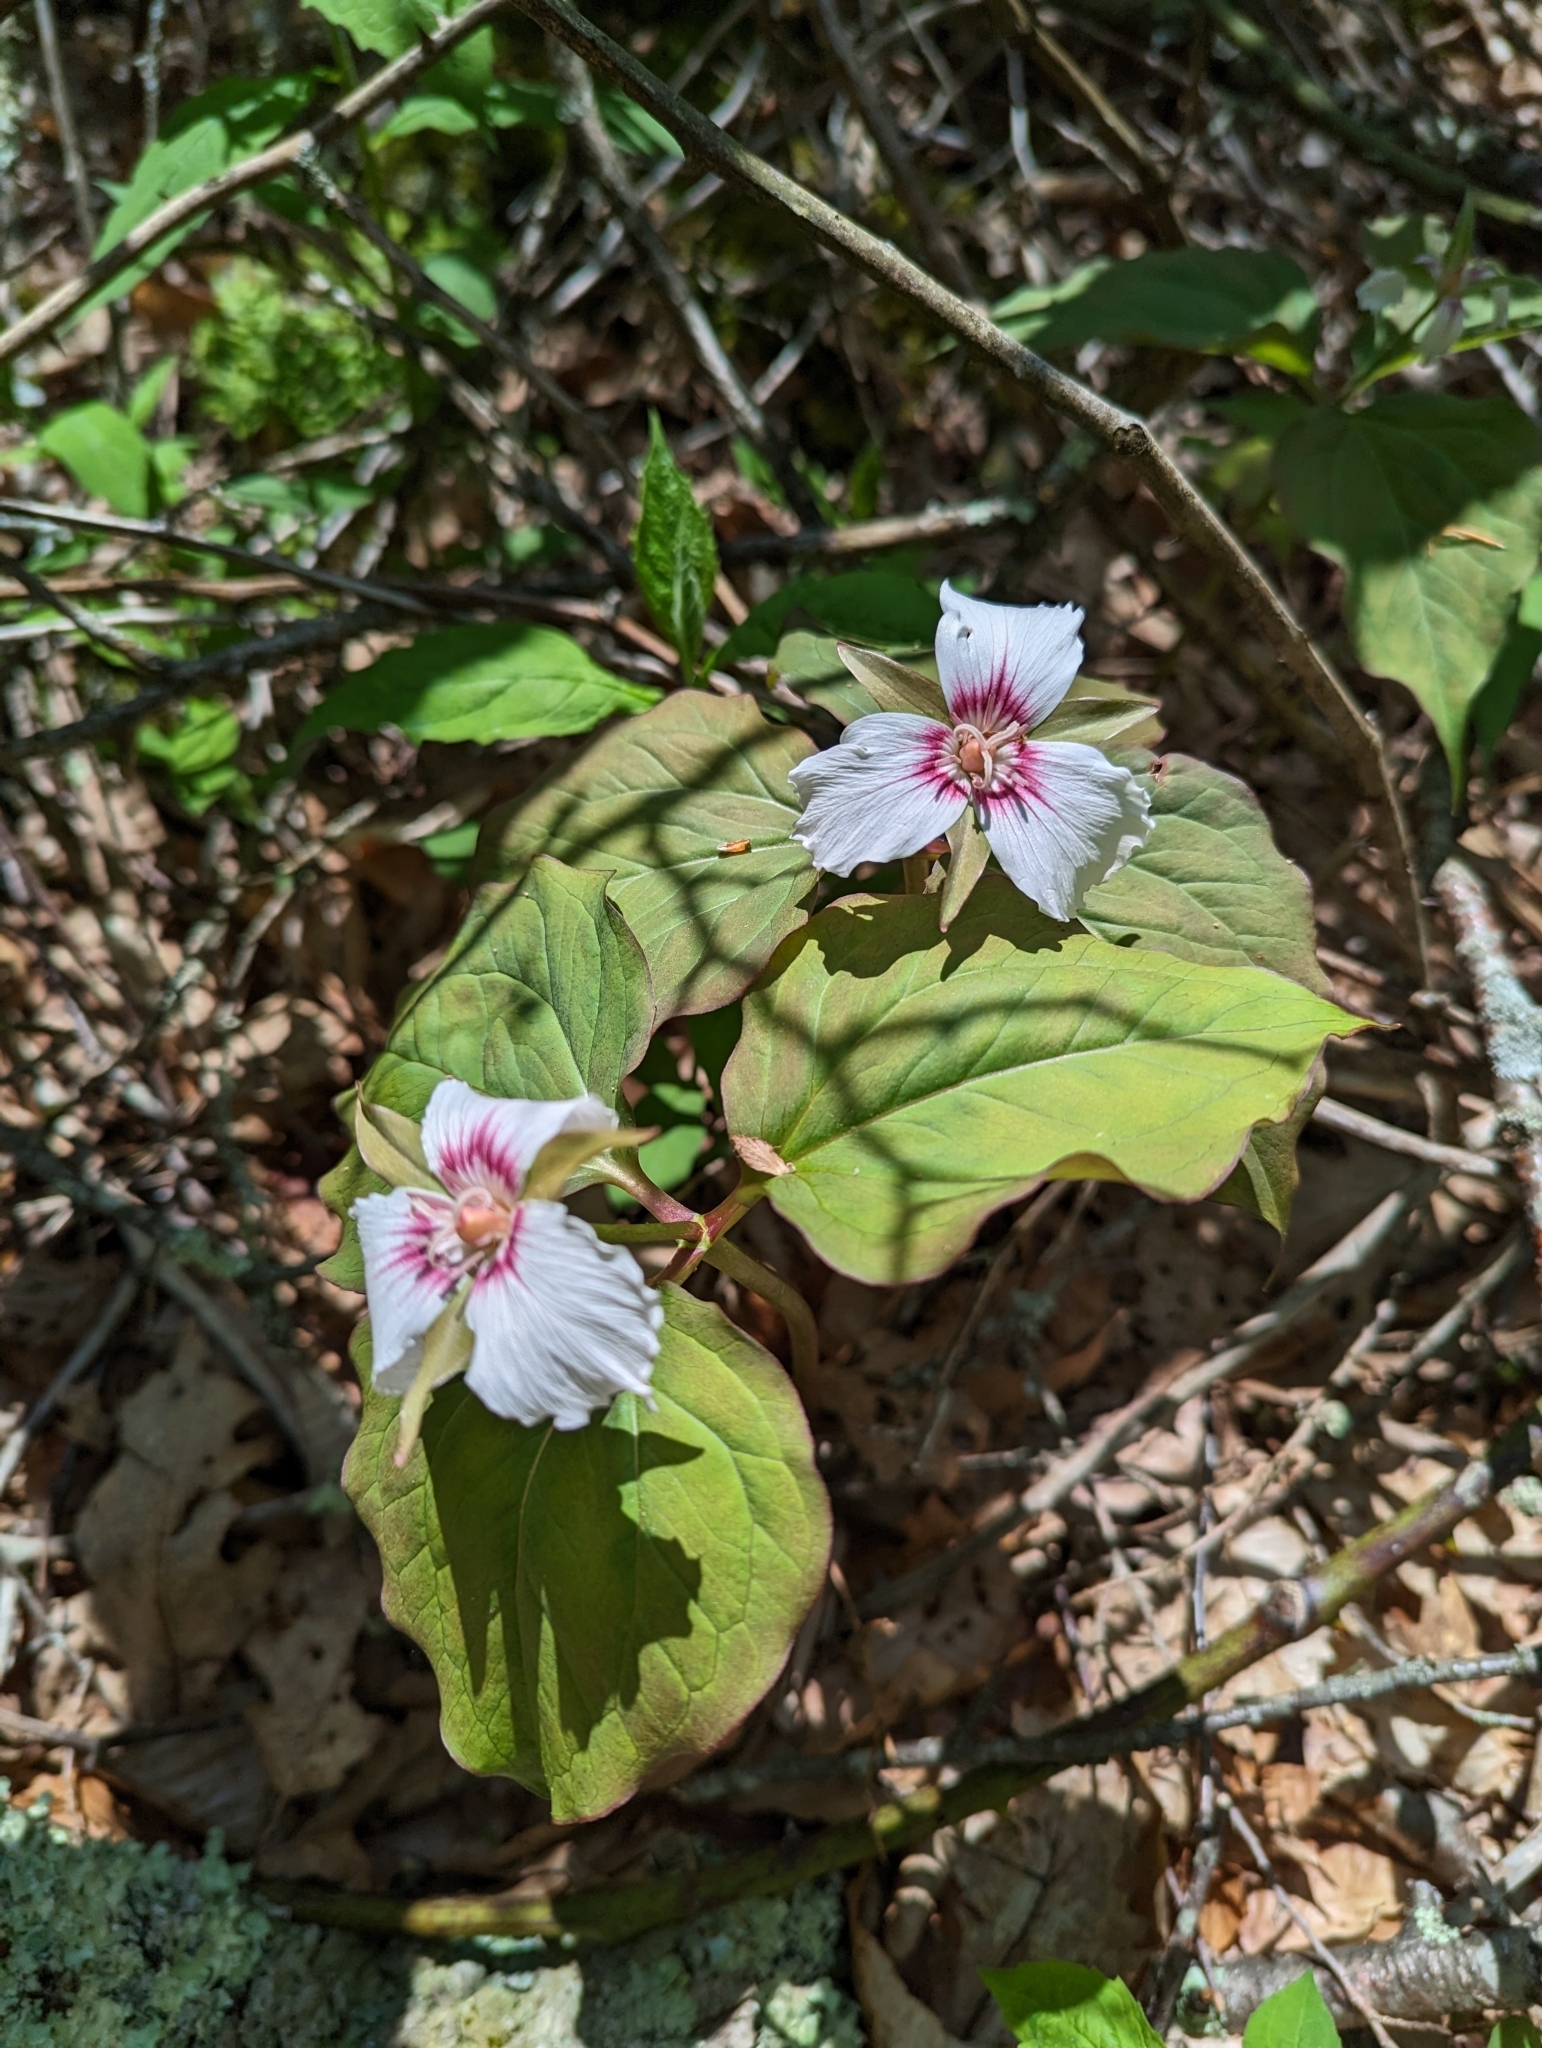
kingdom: Plantae
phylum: Tracheophyta
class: Liliopsida
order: Liliales
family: Melanthiaceae
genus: Trillium
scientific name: Trillium undulatum
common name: Paint trillium
